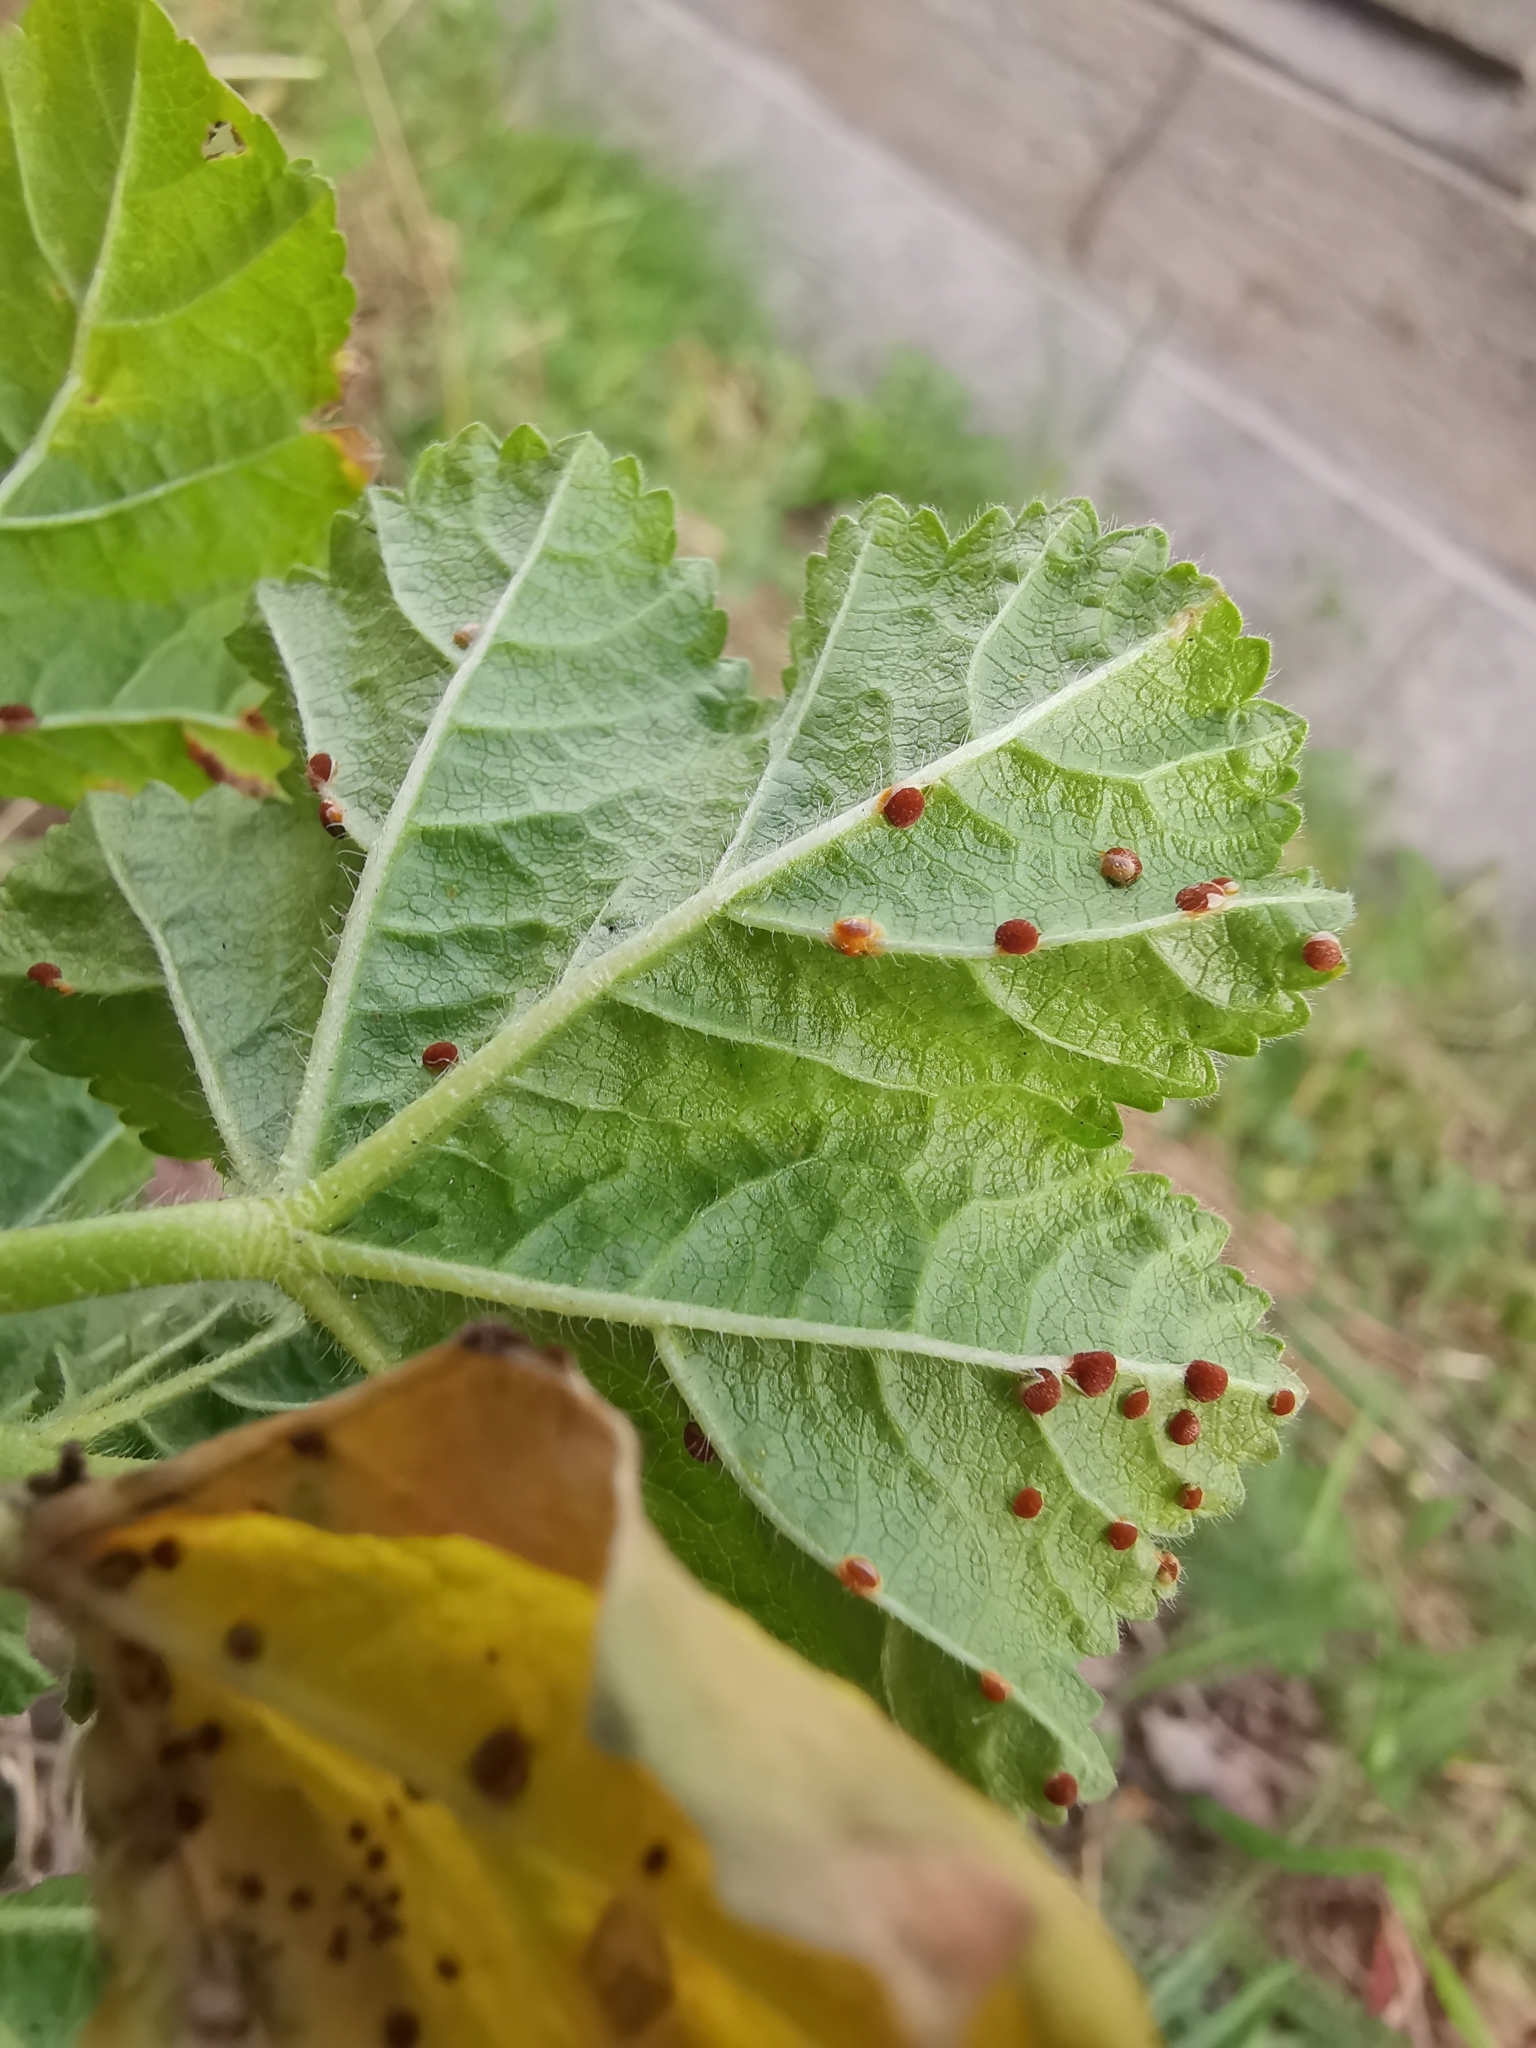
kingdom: Fungi
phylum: Basidiomycota
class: Pucciniomycetes
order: Pucciniales
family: Pucciniaceae
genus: Puccinia
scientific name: Puccinia malvacearum
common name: Hollyhock rust
